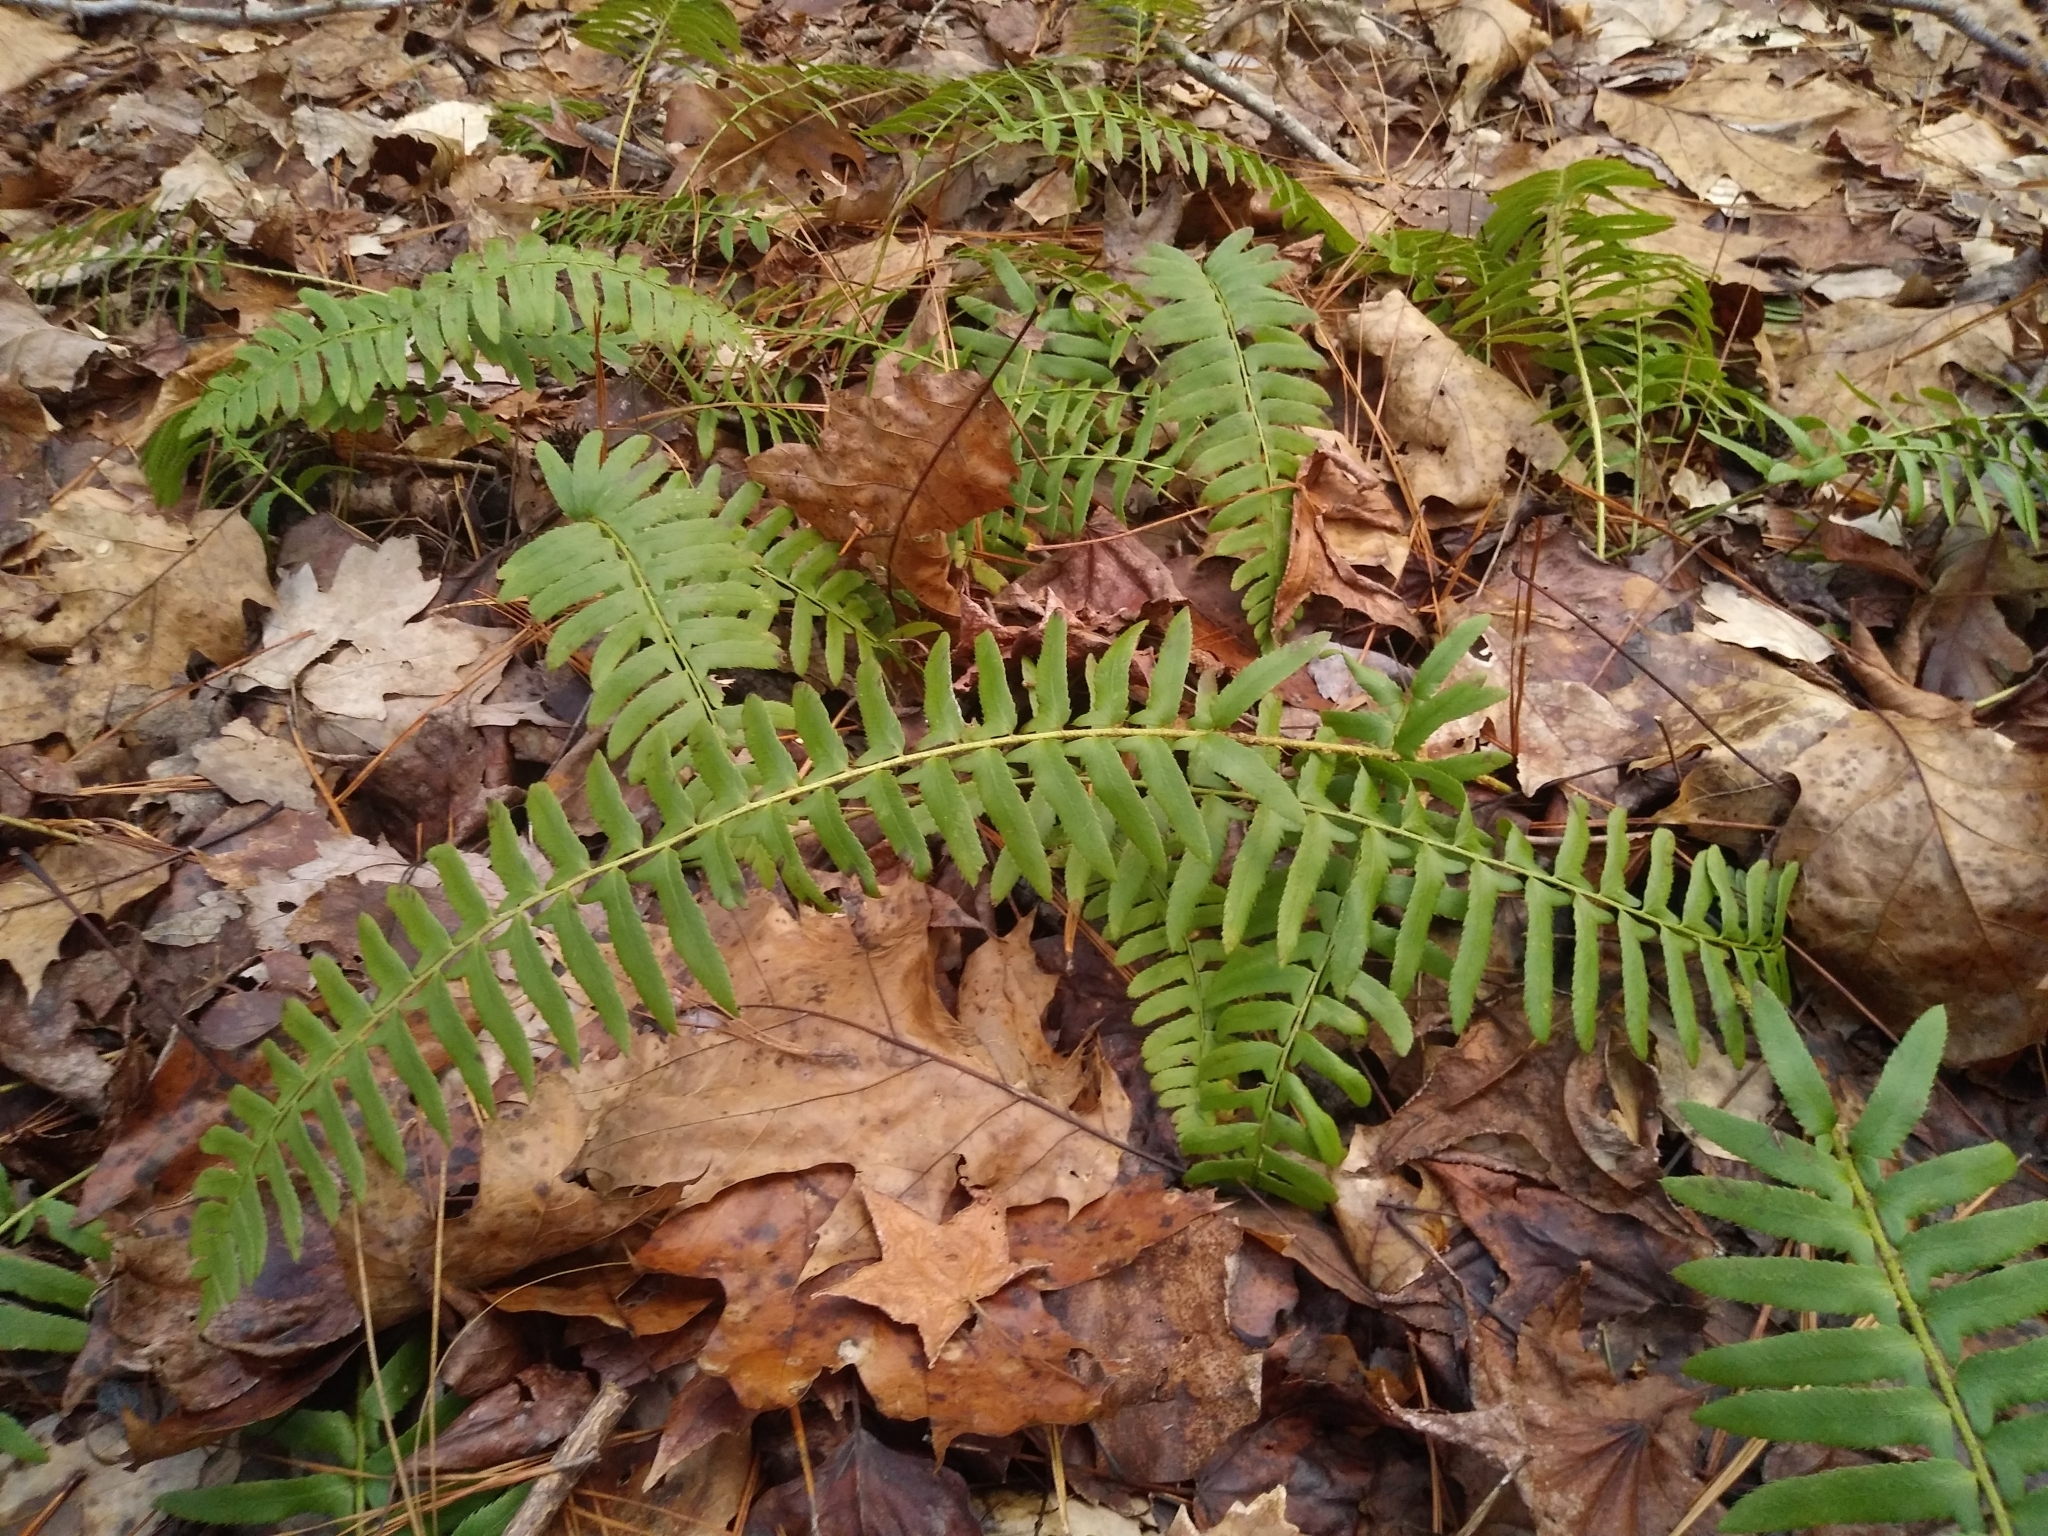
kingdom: Plantae
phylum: Tracheophyta
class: Polypodiopsida
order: Polypodiales
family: Dryopteridaceae
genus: Polystichum
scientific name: Polystichum acrostichoides
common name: Christmas fern
